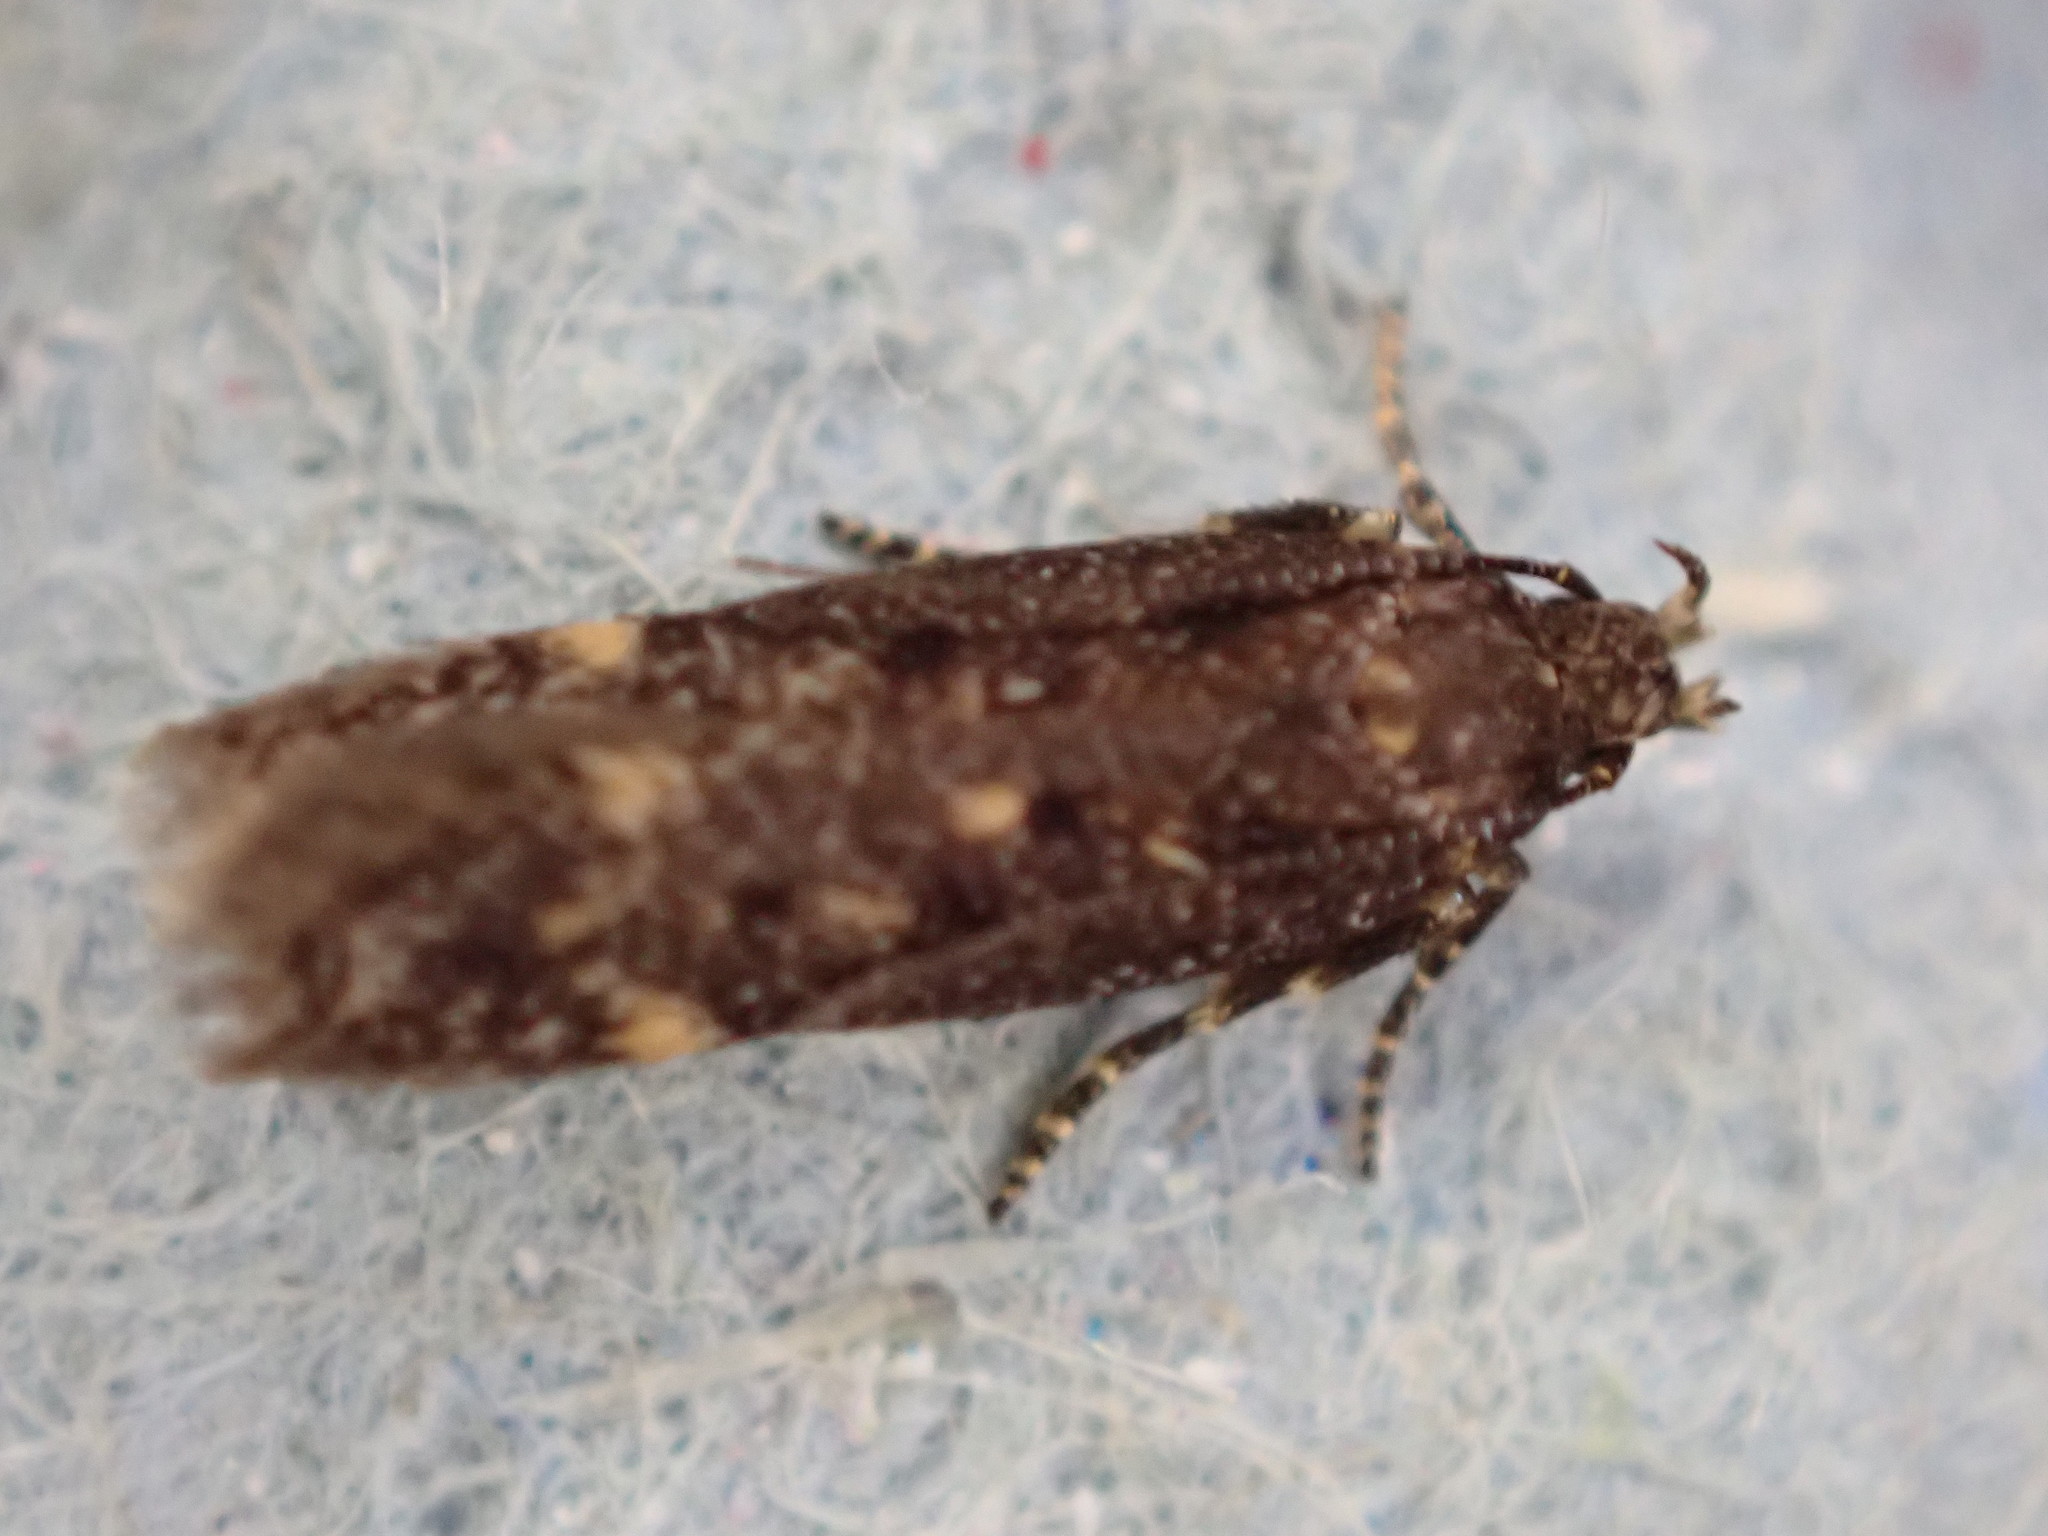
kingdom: Animalia
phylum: Arthropoda
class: Insecta
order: Lepidoptera
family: Gelechiidae
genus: Bryotropha
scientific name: Bryotropha affinis
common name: Dark groundling
